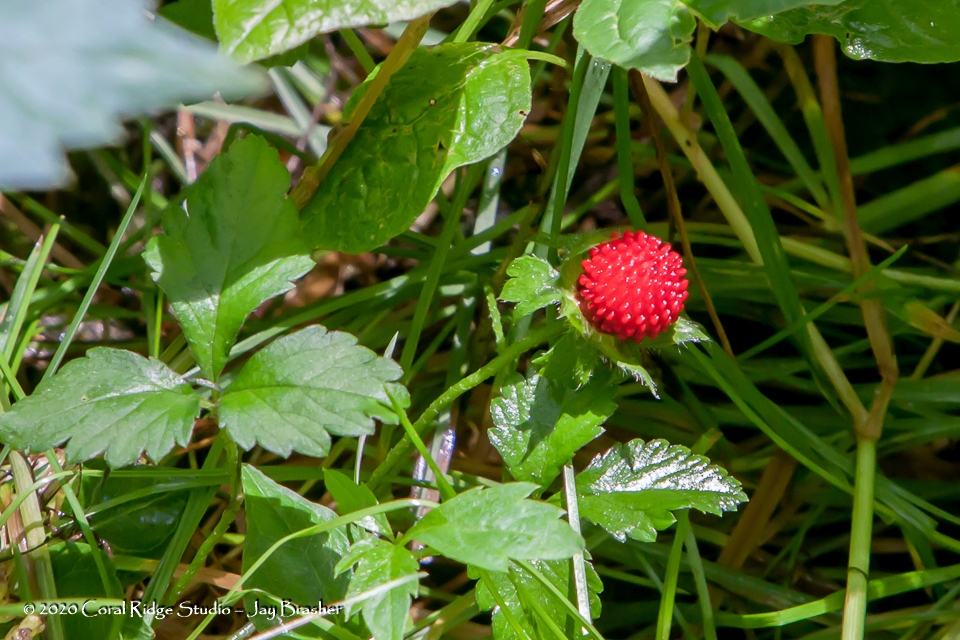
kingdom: Plantae
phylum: Tracheophyta
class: Magnoliopsida
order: Rosales
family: Rosaceae
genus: Potentilla
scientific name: Potentilla indica
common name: Yellow-flowered strawberry
